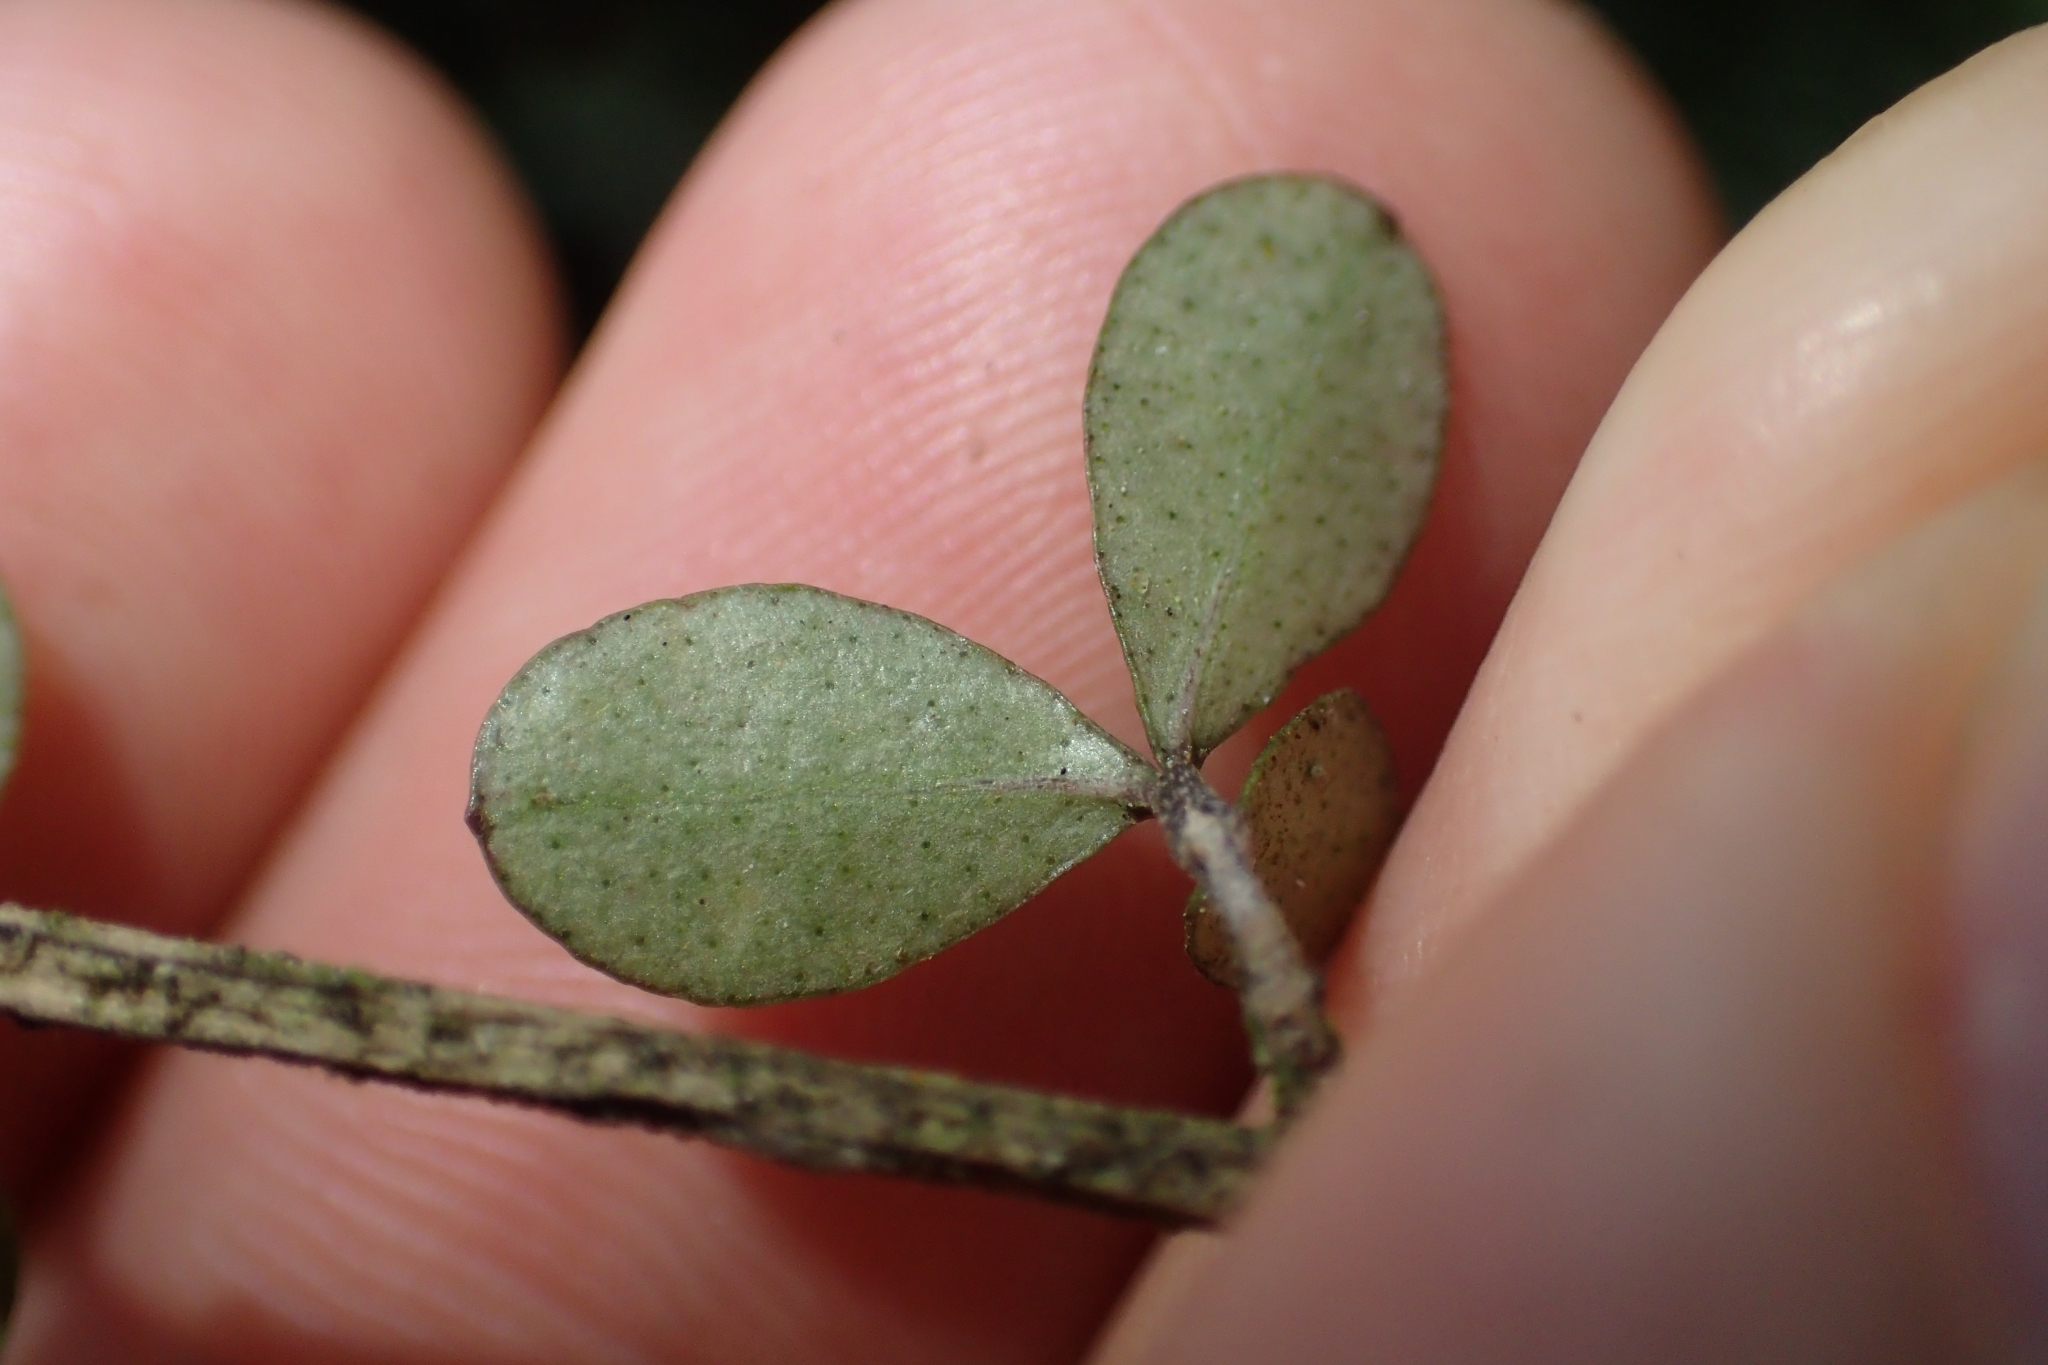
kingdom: Plantae
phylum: Tracheophyta
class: Magnoliopsida
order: Myrtales
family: Myrtaceae
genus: Neomyrtus
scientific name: Neomyrtus pedunculata
